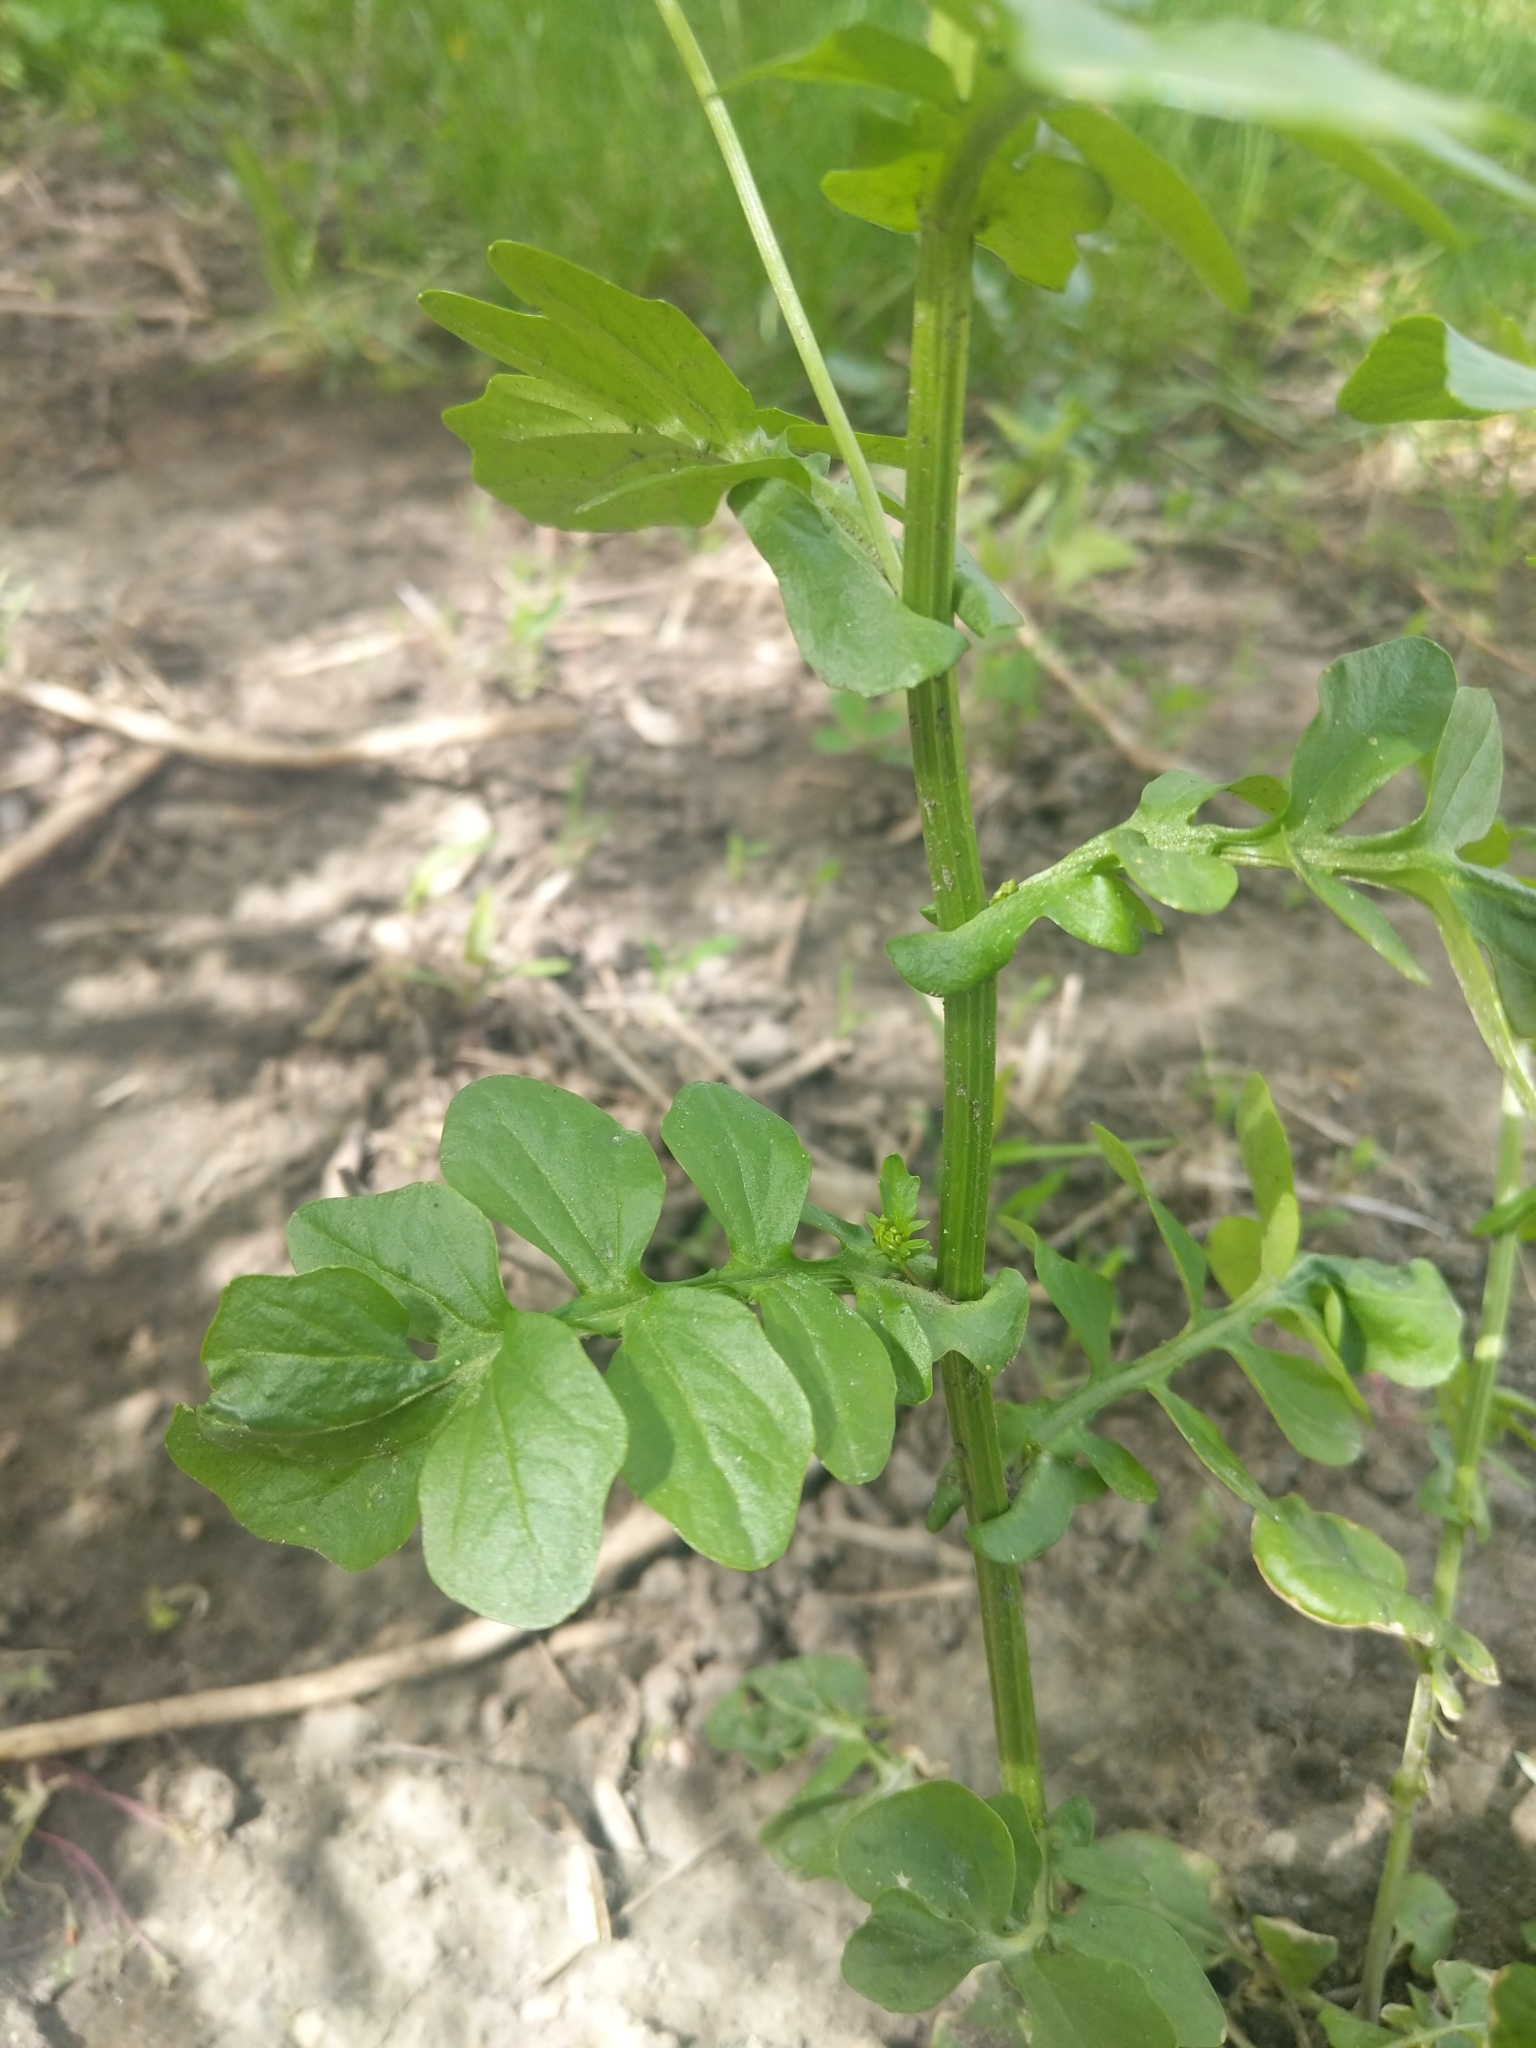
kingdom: Plantae
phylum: Tracheophyta
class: Magnoliopsida
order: Brassicales
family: Brassicaceae
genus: Barbarea
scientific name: Barbarea vulgaris
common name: Cressy-greens
